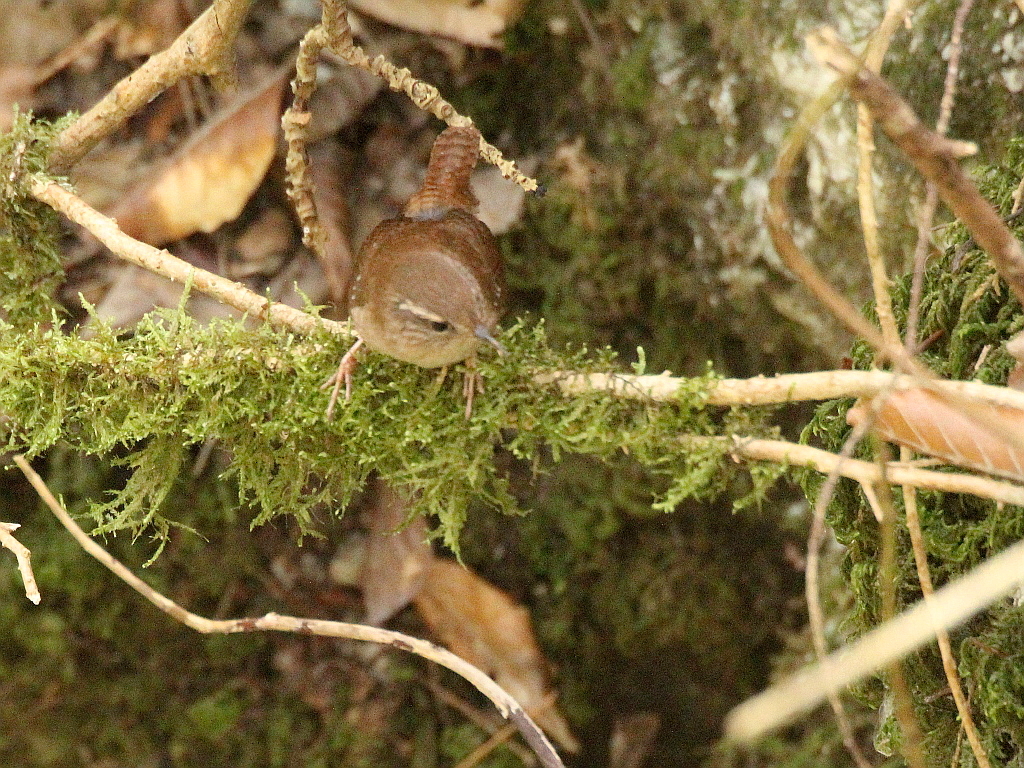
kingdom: Animalia
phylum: Chordata
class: Aves
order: Passeriformes
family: Troglodytidae
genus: Troglodytes
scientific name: Troglodytes troglodytes
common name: Eurasian wren
